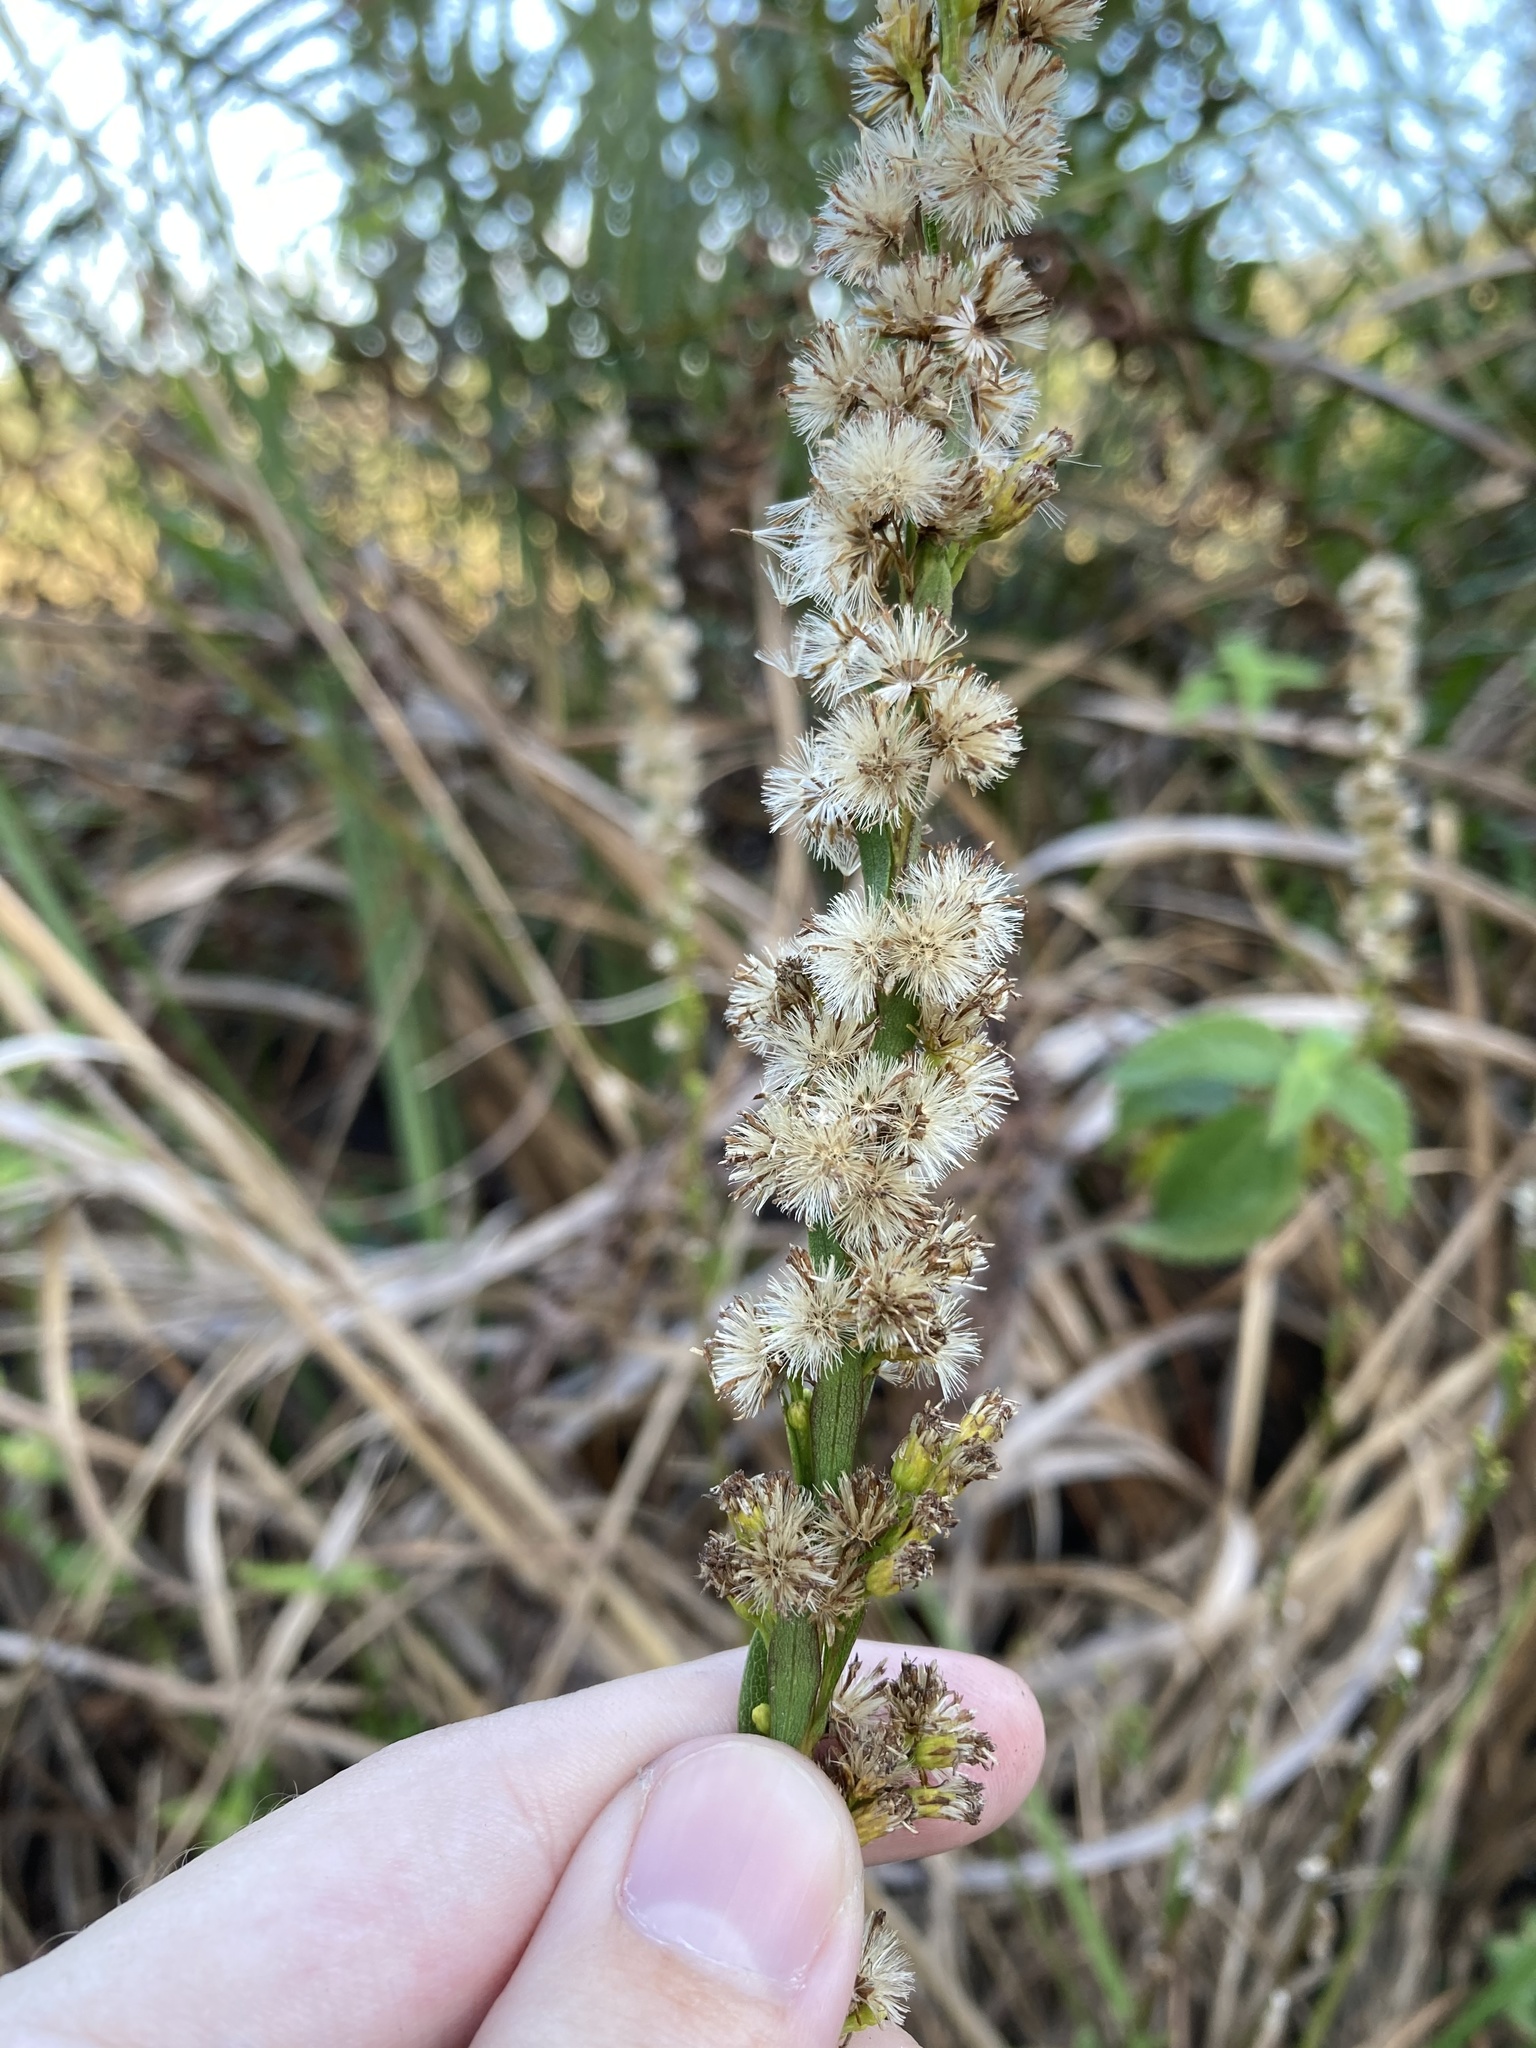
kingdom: Plantae
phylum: Tracheophyta
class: Magnoliopsida
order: Asterales
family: Asteraceae
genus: Solidago
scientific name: Solidago mexicana
